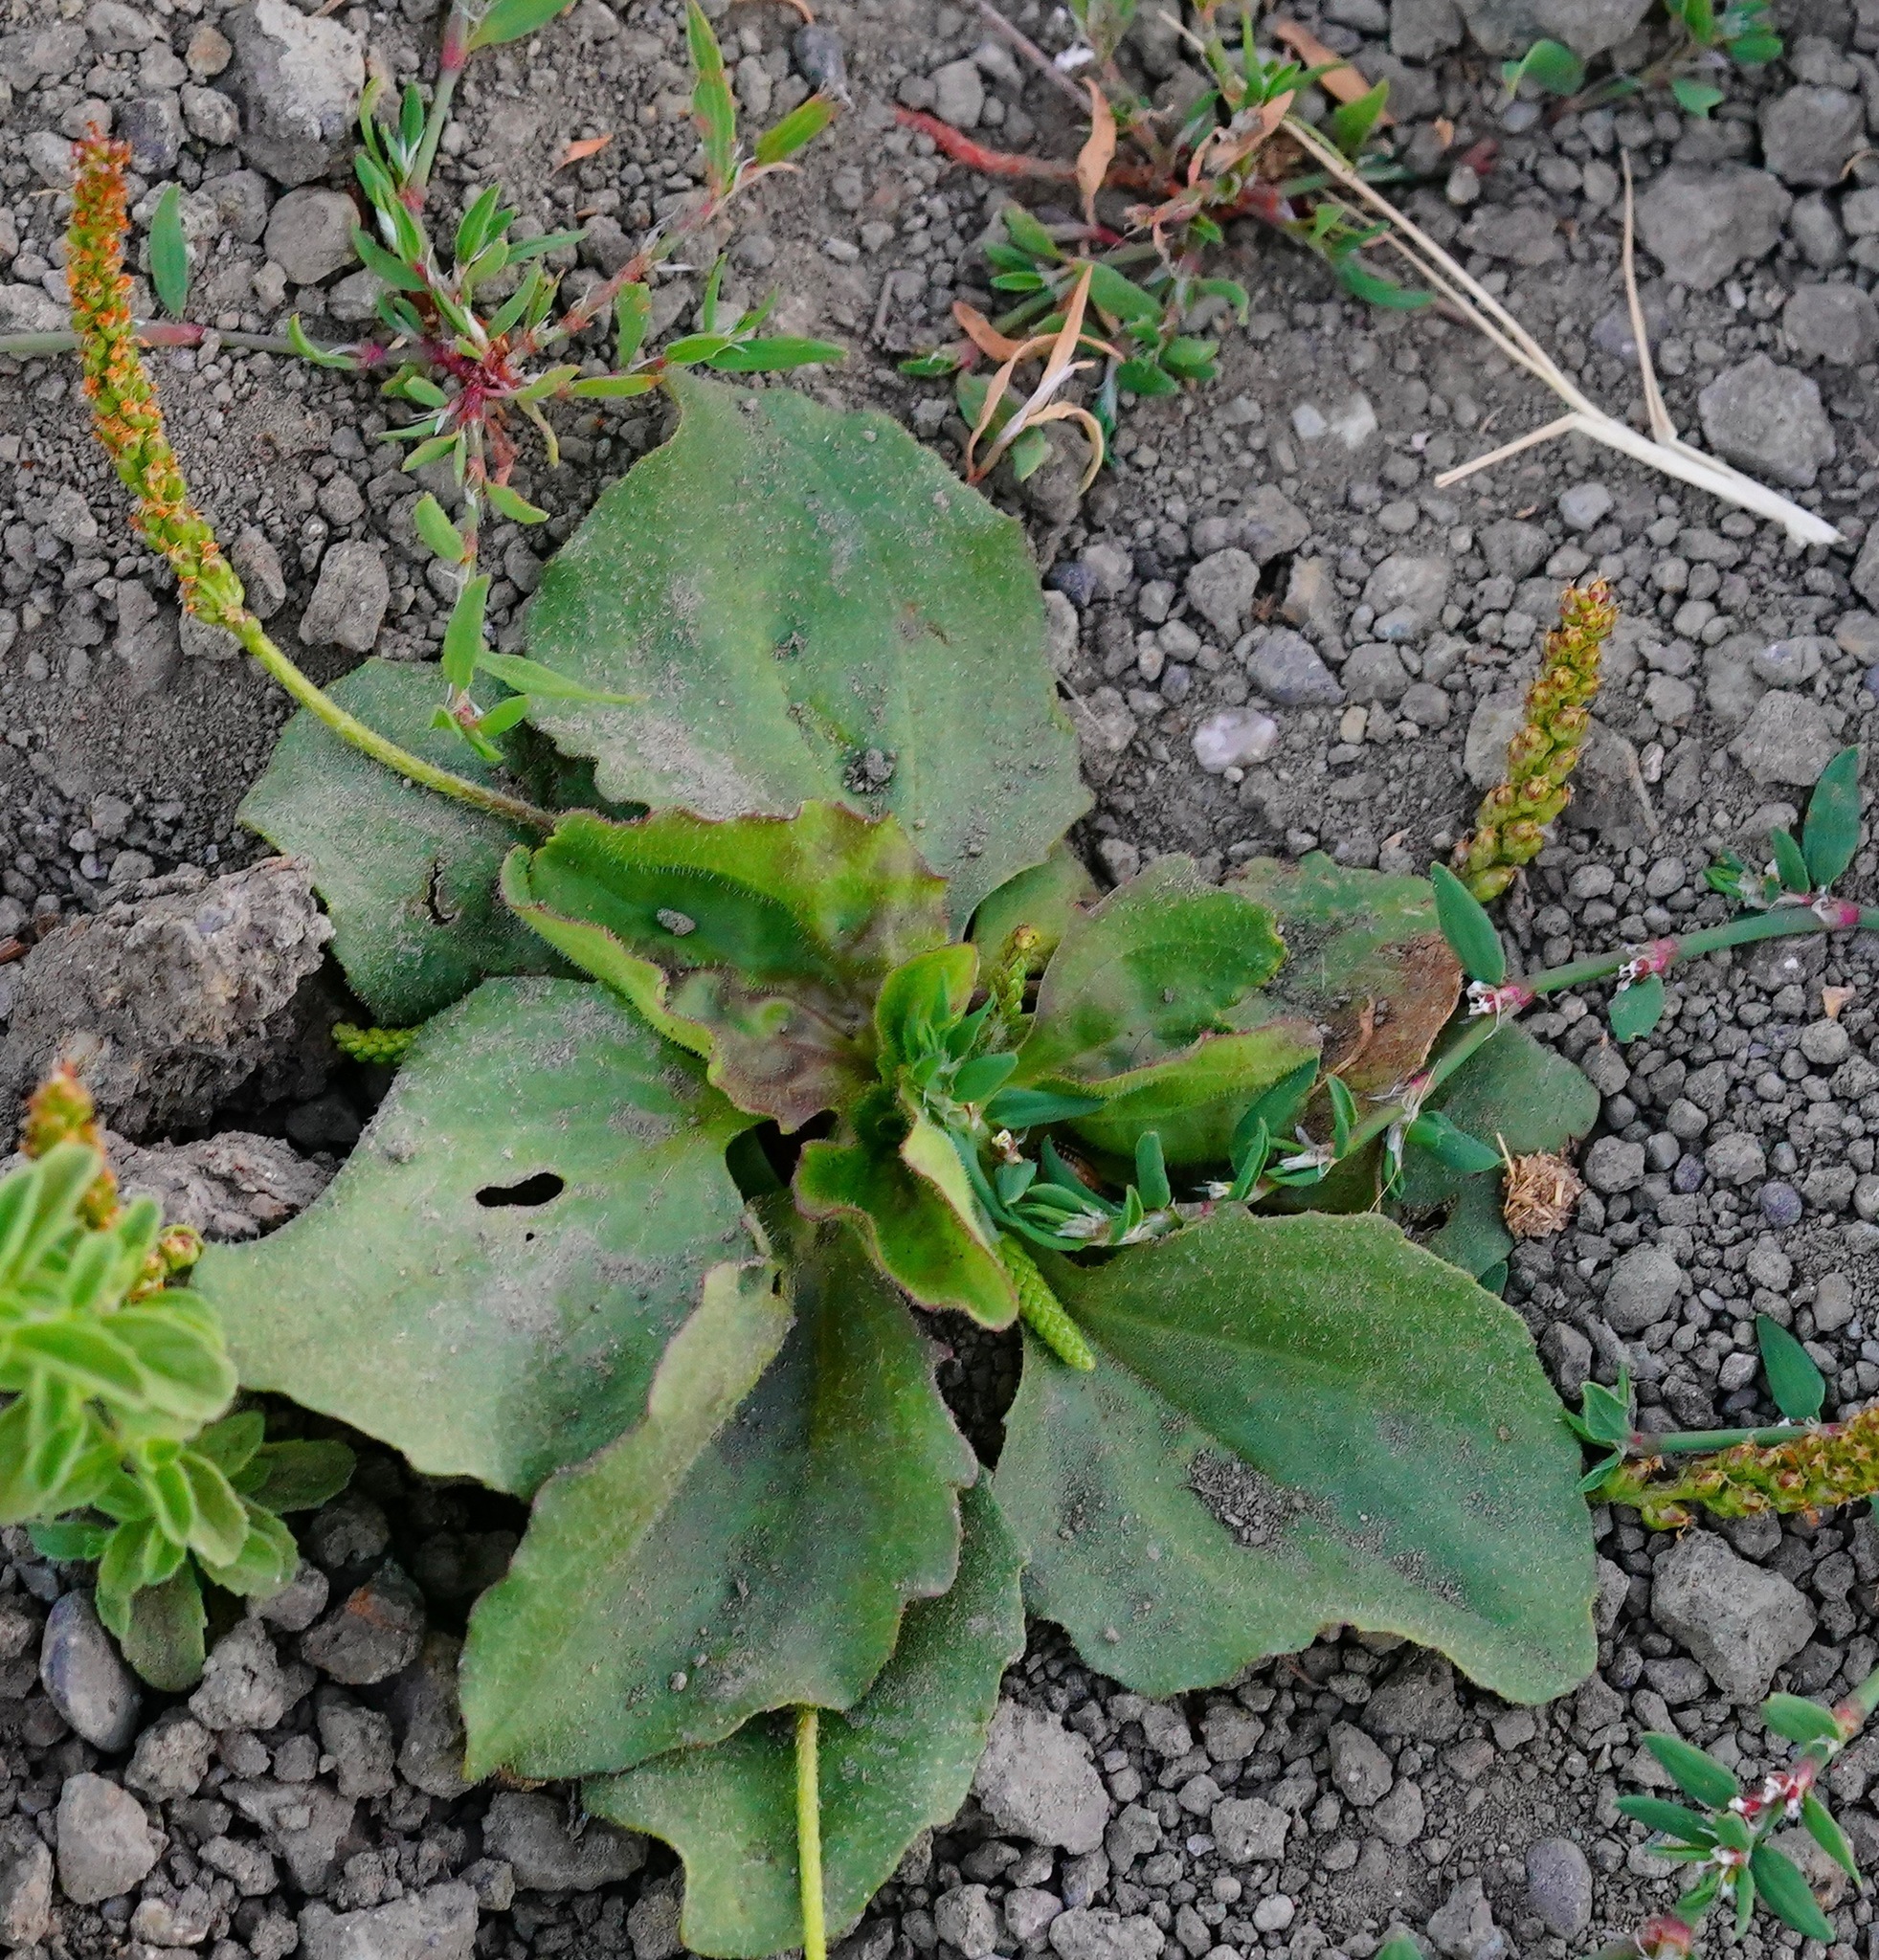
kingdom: Plantae
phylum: Tracheophyta
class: Magnoliopsida
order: Lamiales
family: Plantaginaceae
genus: Plantago
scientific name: Plantago major
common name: Common plantain
